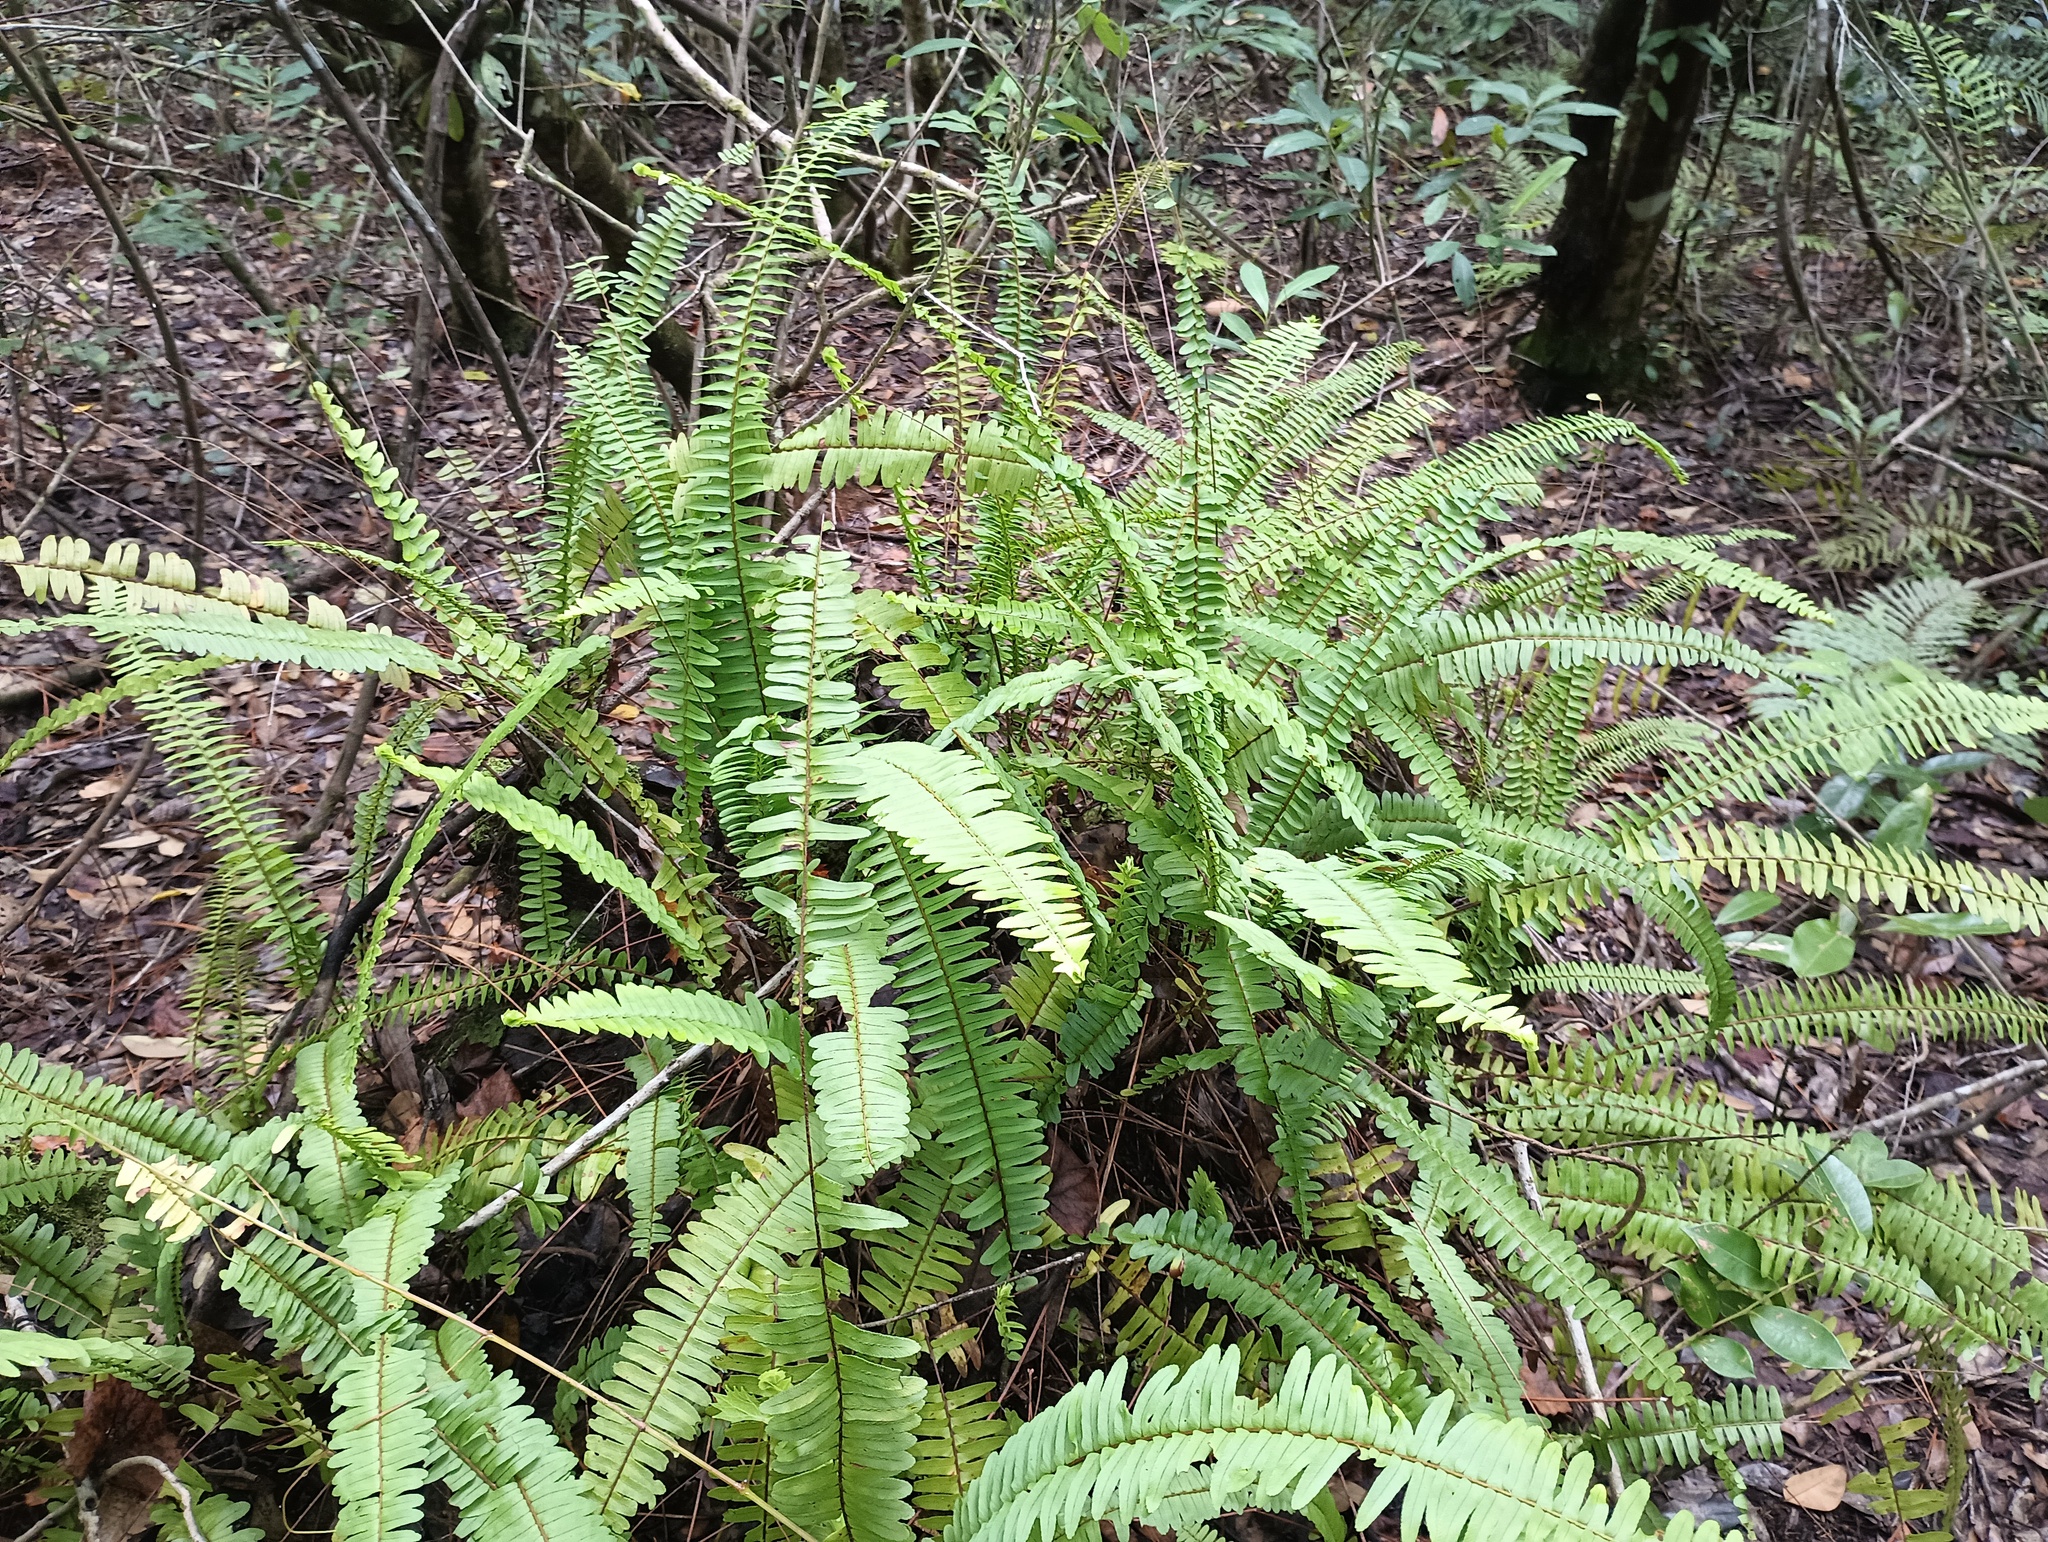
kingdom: Plantae
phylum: Tracheophyta
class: Polypodiopsida
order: Polypodiales
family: Nephrolepidaceae
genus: Nephrolepis
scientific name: Nephrolepis cordifolia
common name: Narrow swordfern
